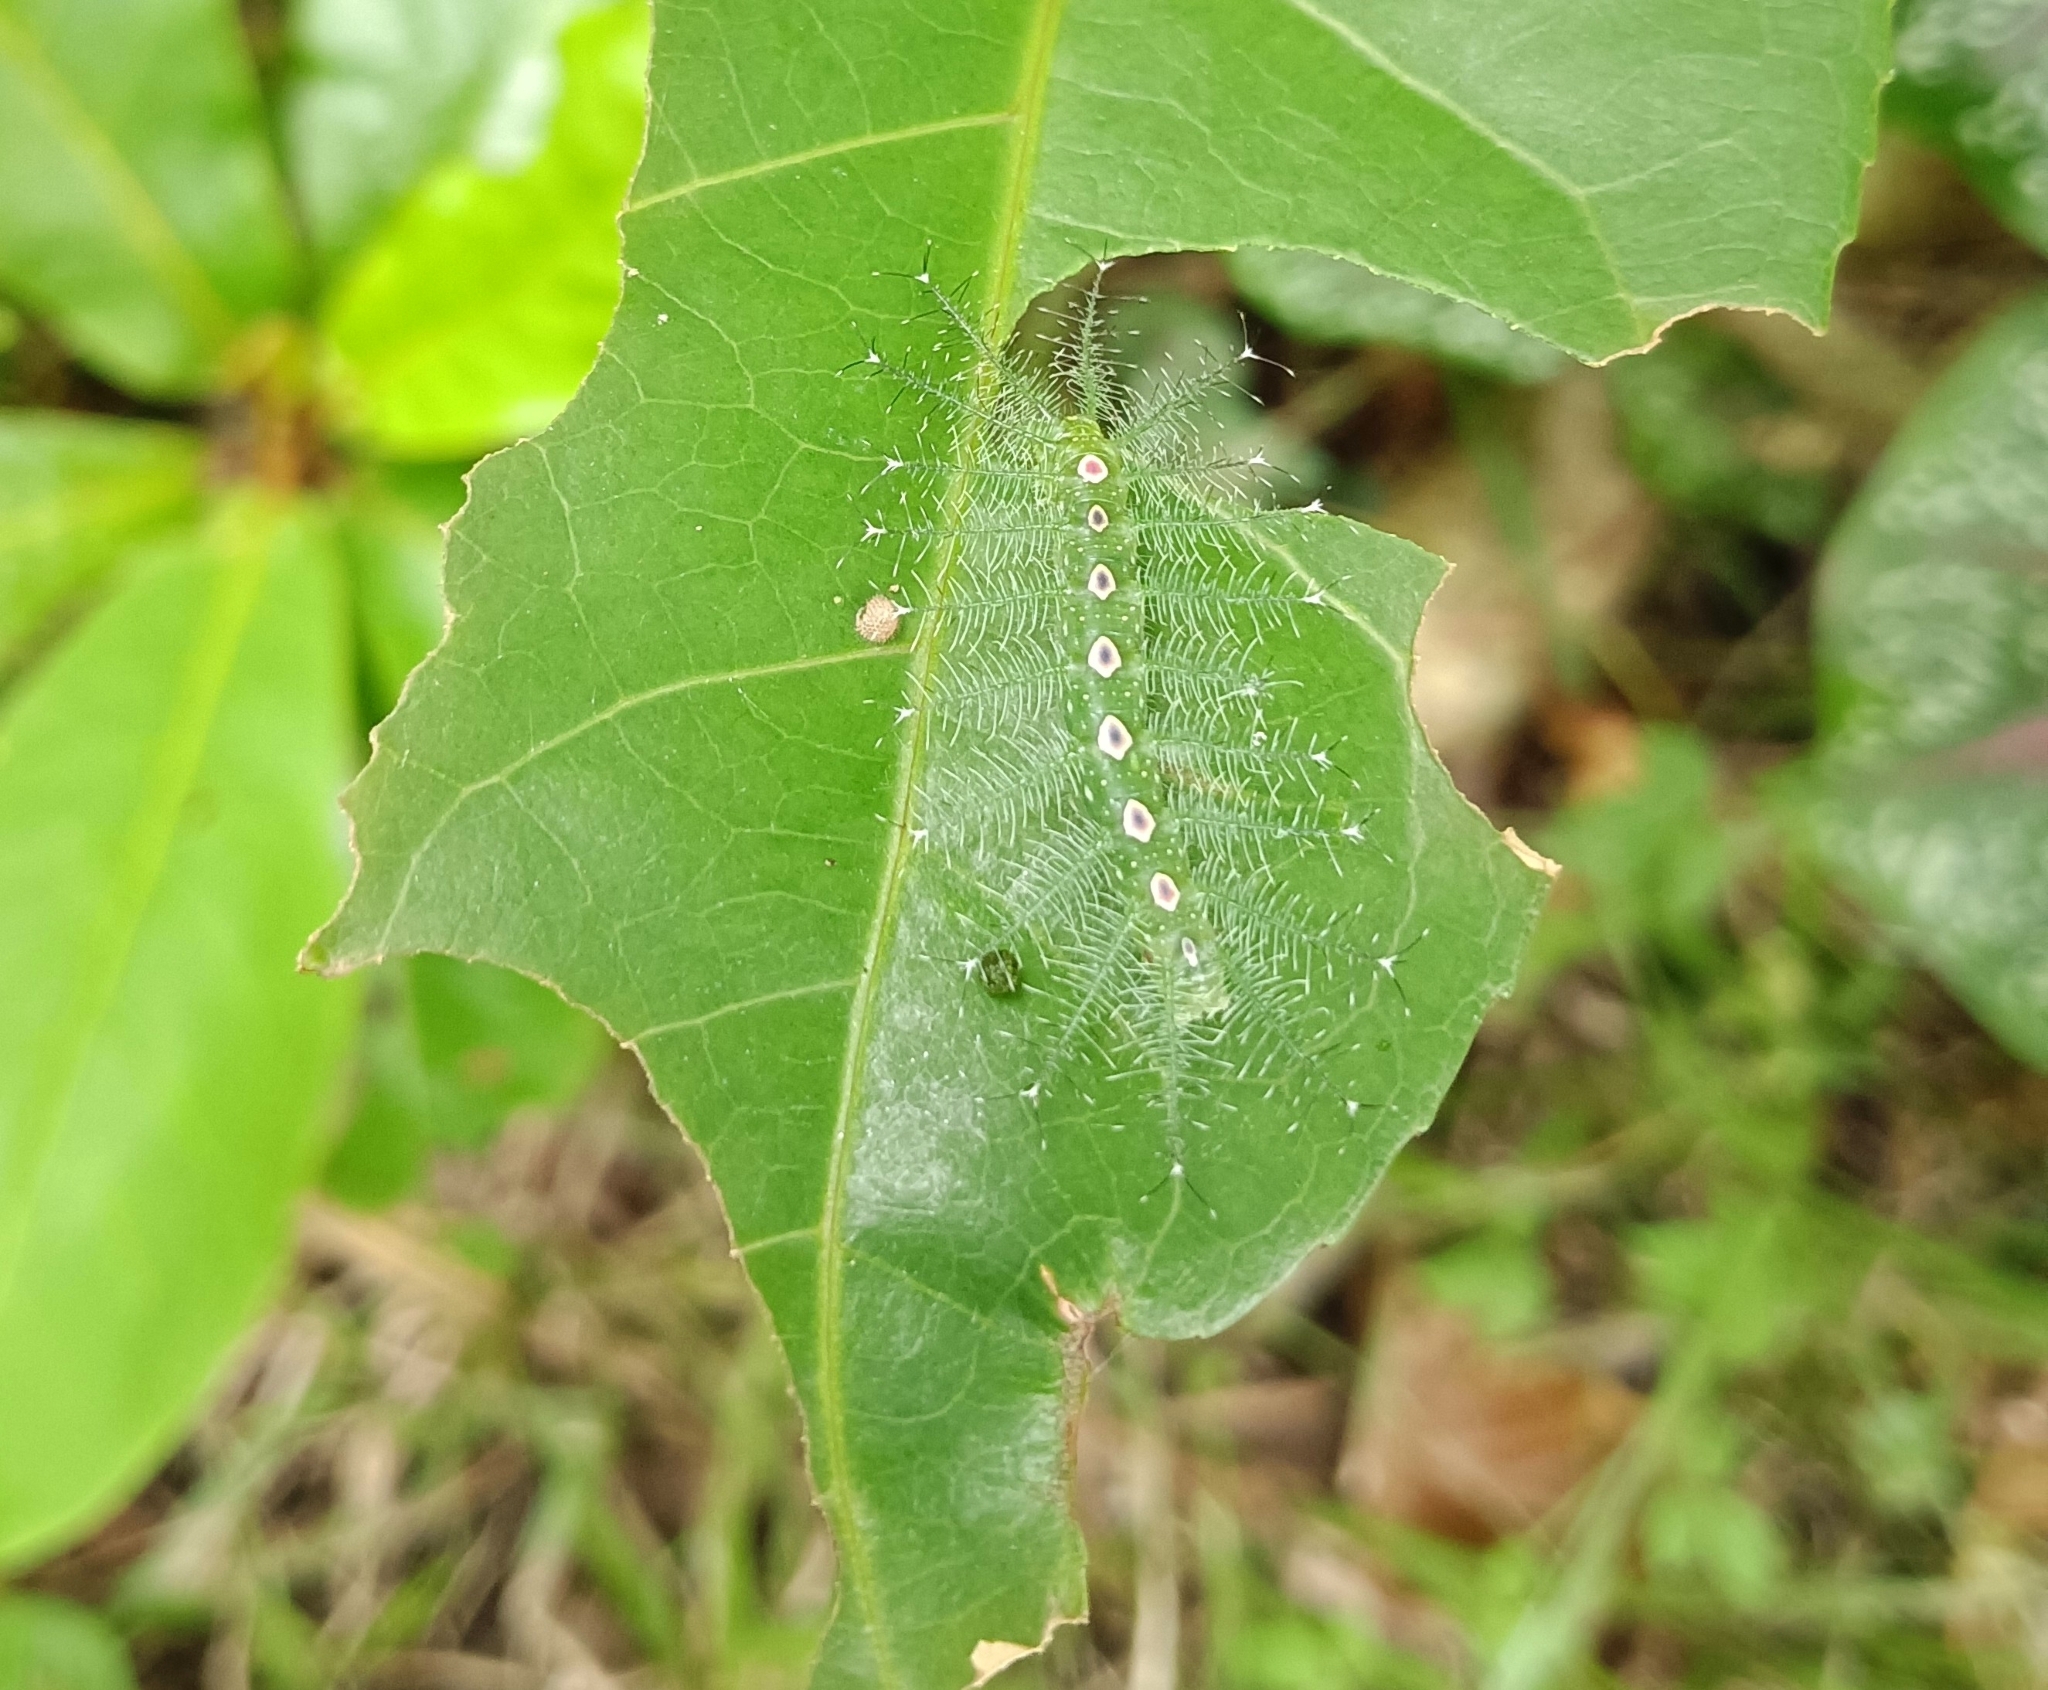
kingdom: Animalia
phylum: Arthropoda
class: Insecta
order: Lepidoptera
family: Nymphalidae
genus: Tanaecia
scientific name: Tanaecia lepidea
